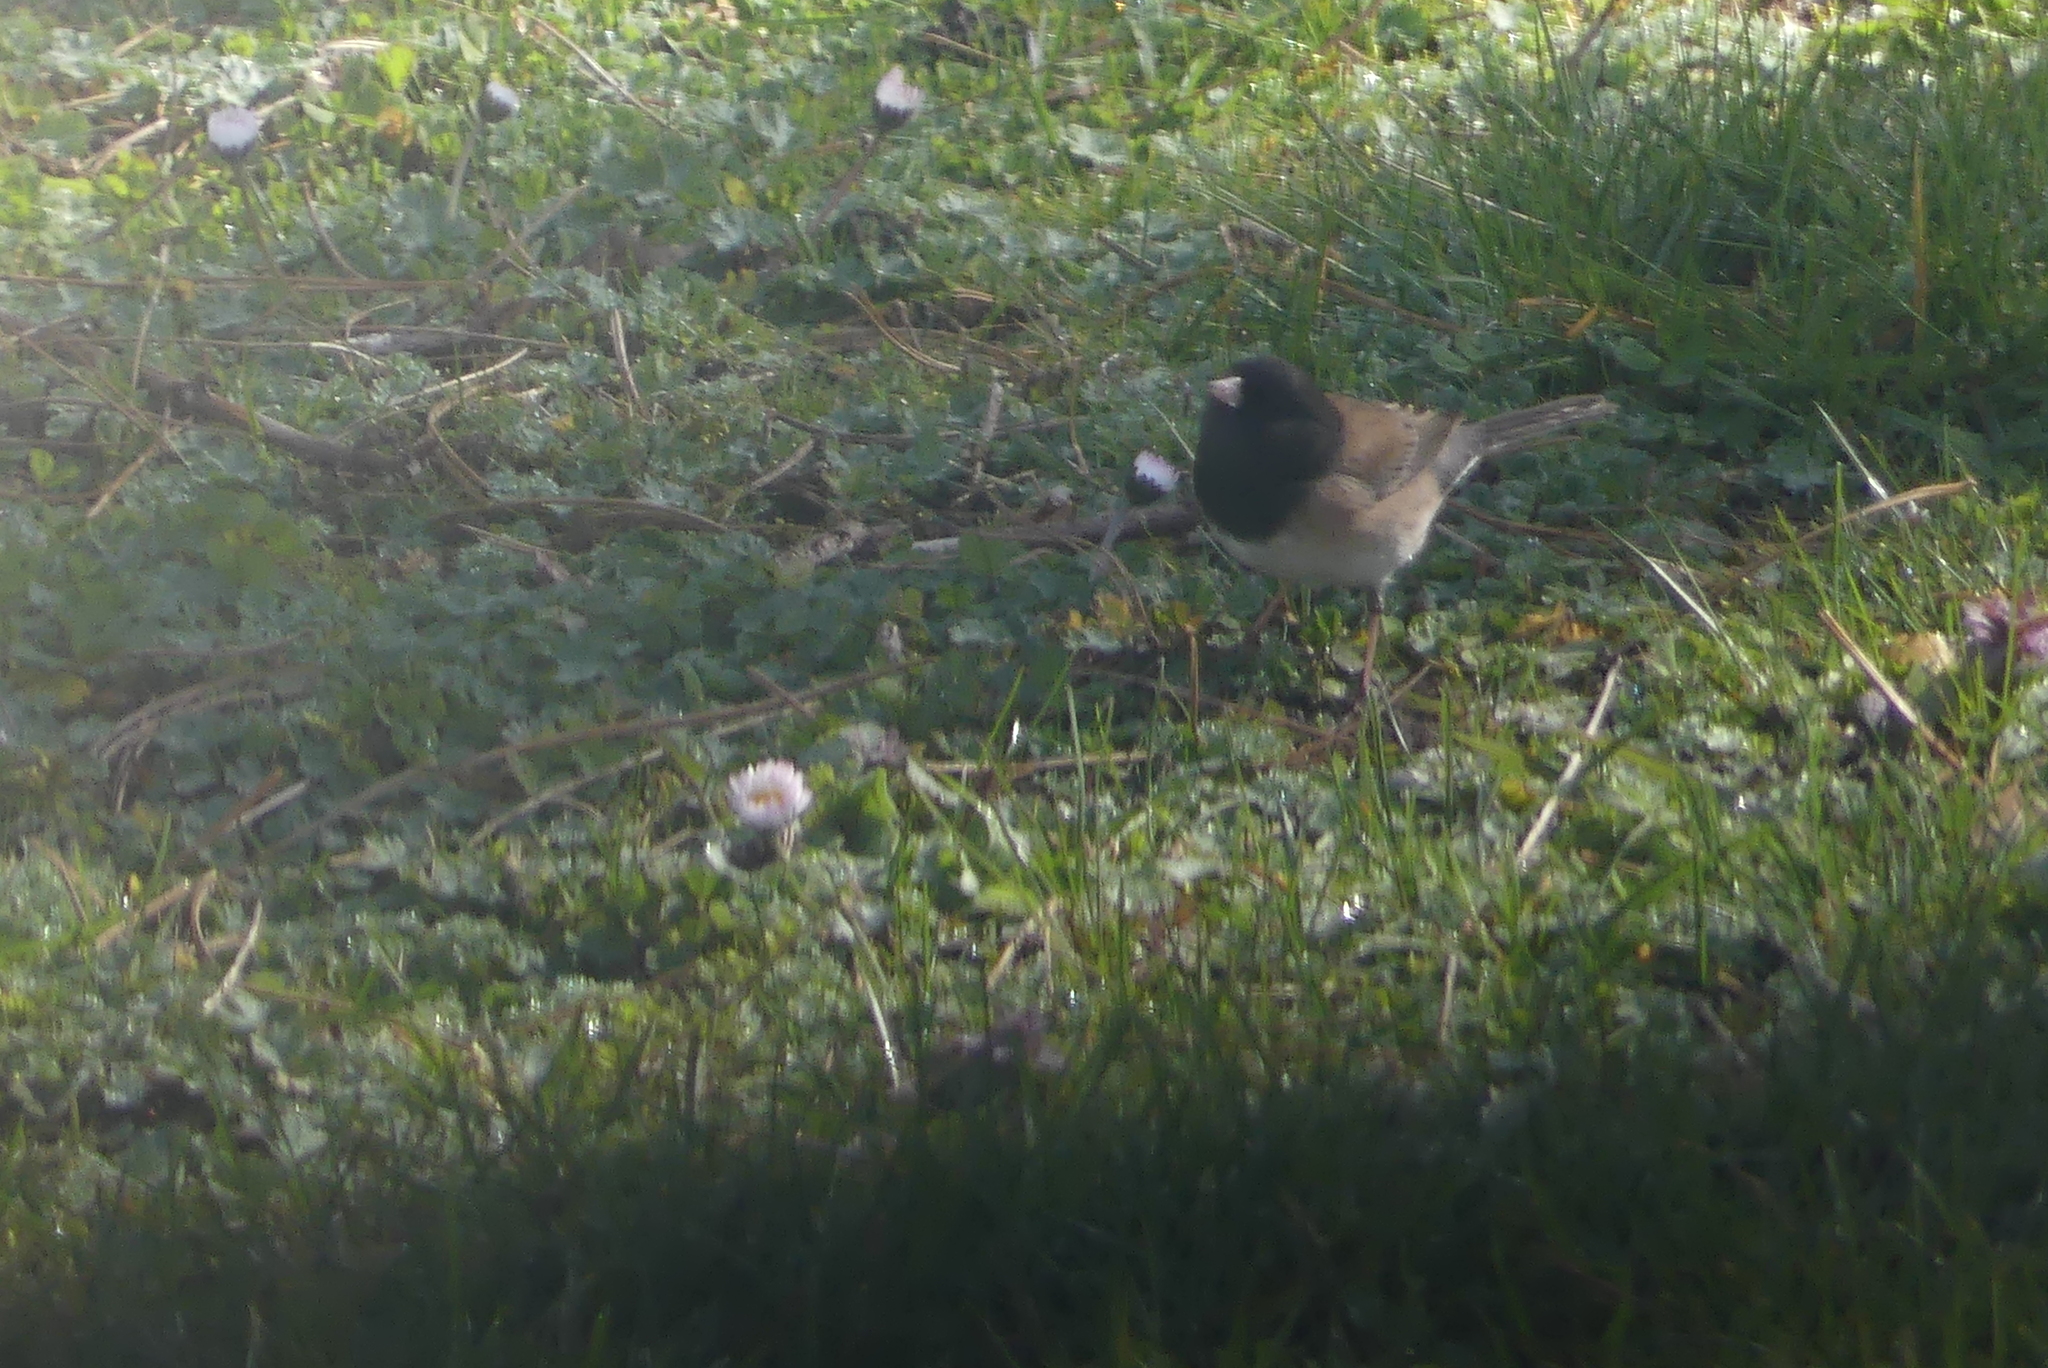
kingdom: Animalia
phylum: Chordata
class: Aves
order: Passeriformes
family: Passerellidae
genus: Junco
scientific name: Junco hyemalis
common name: Dark-eyed junco
